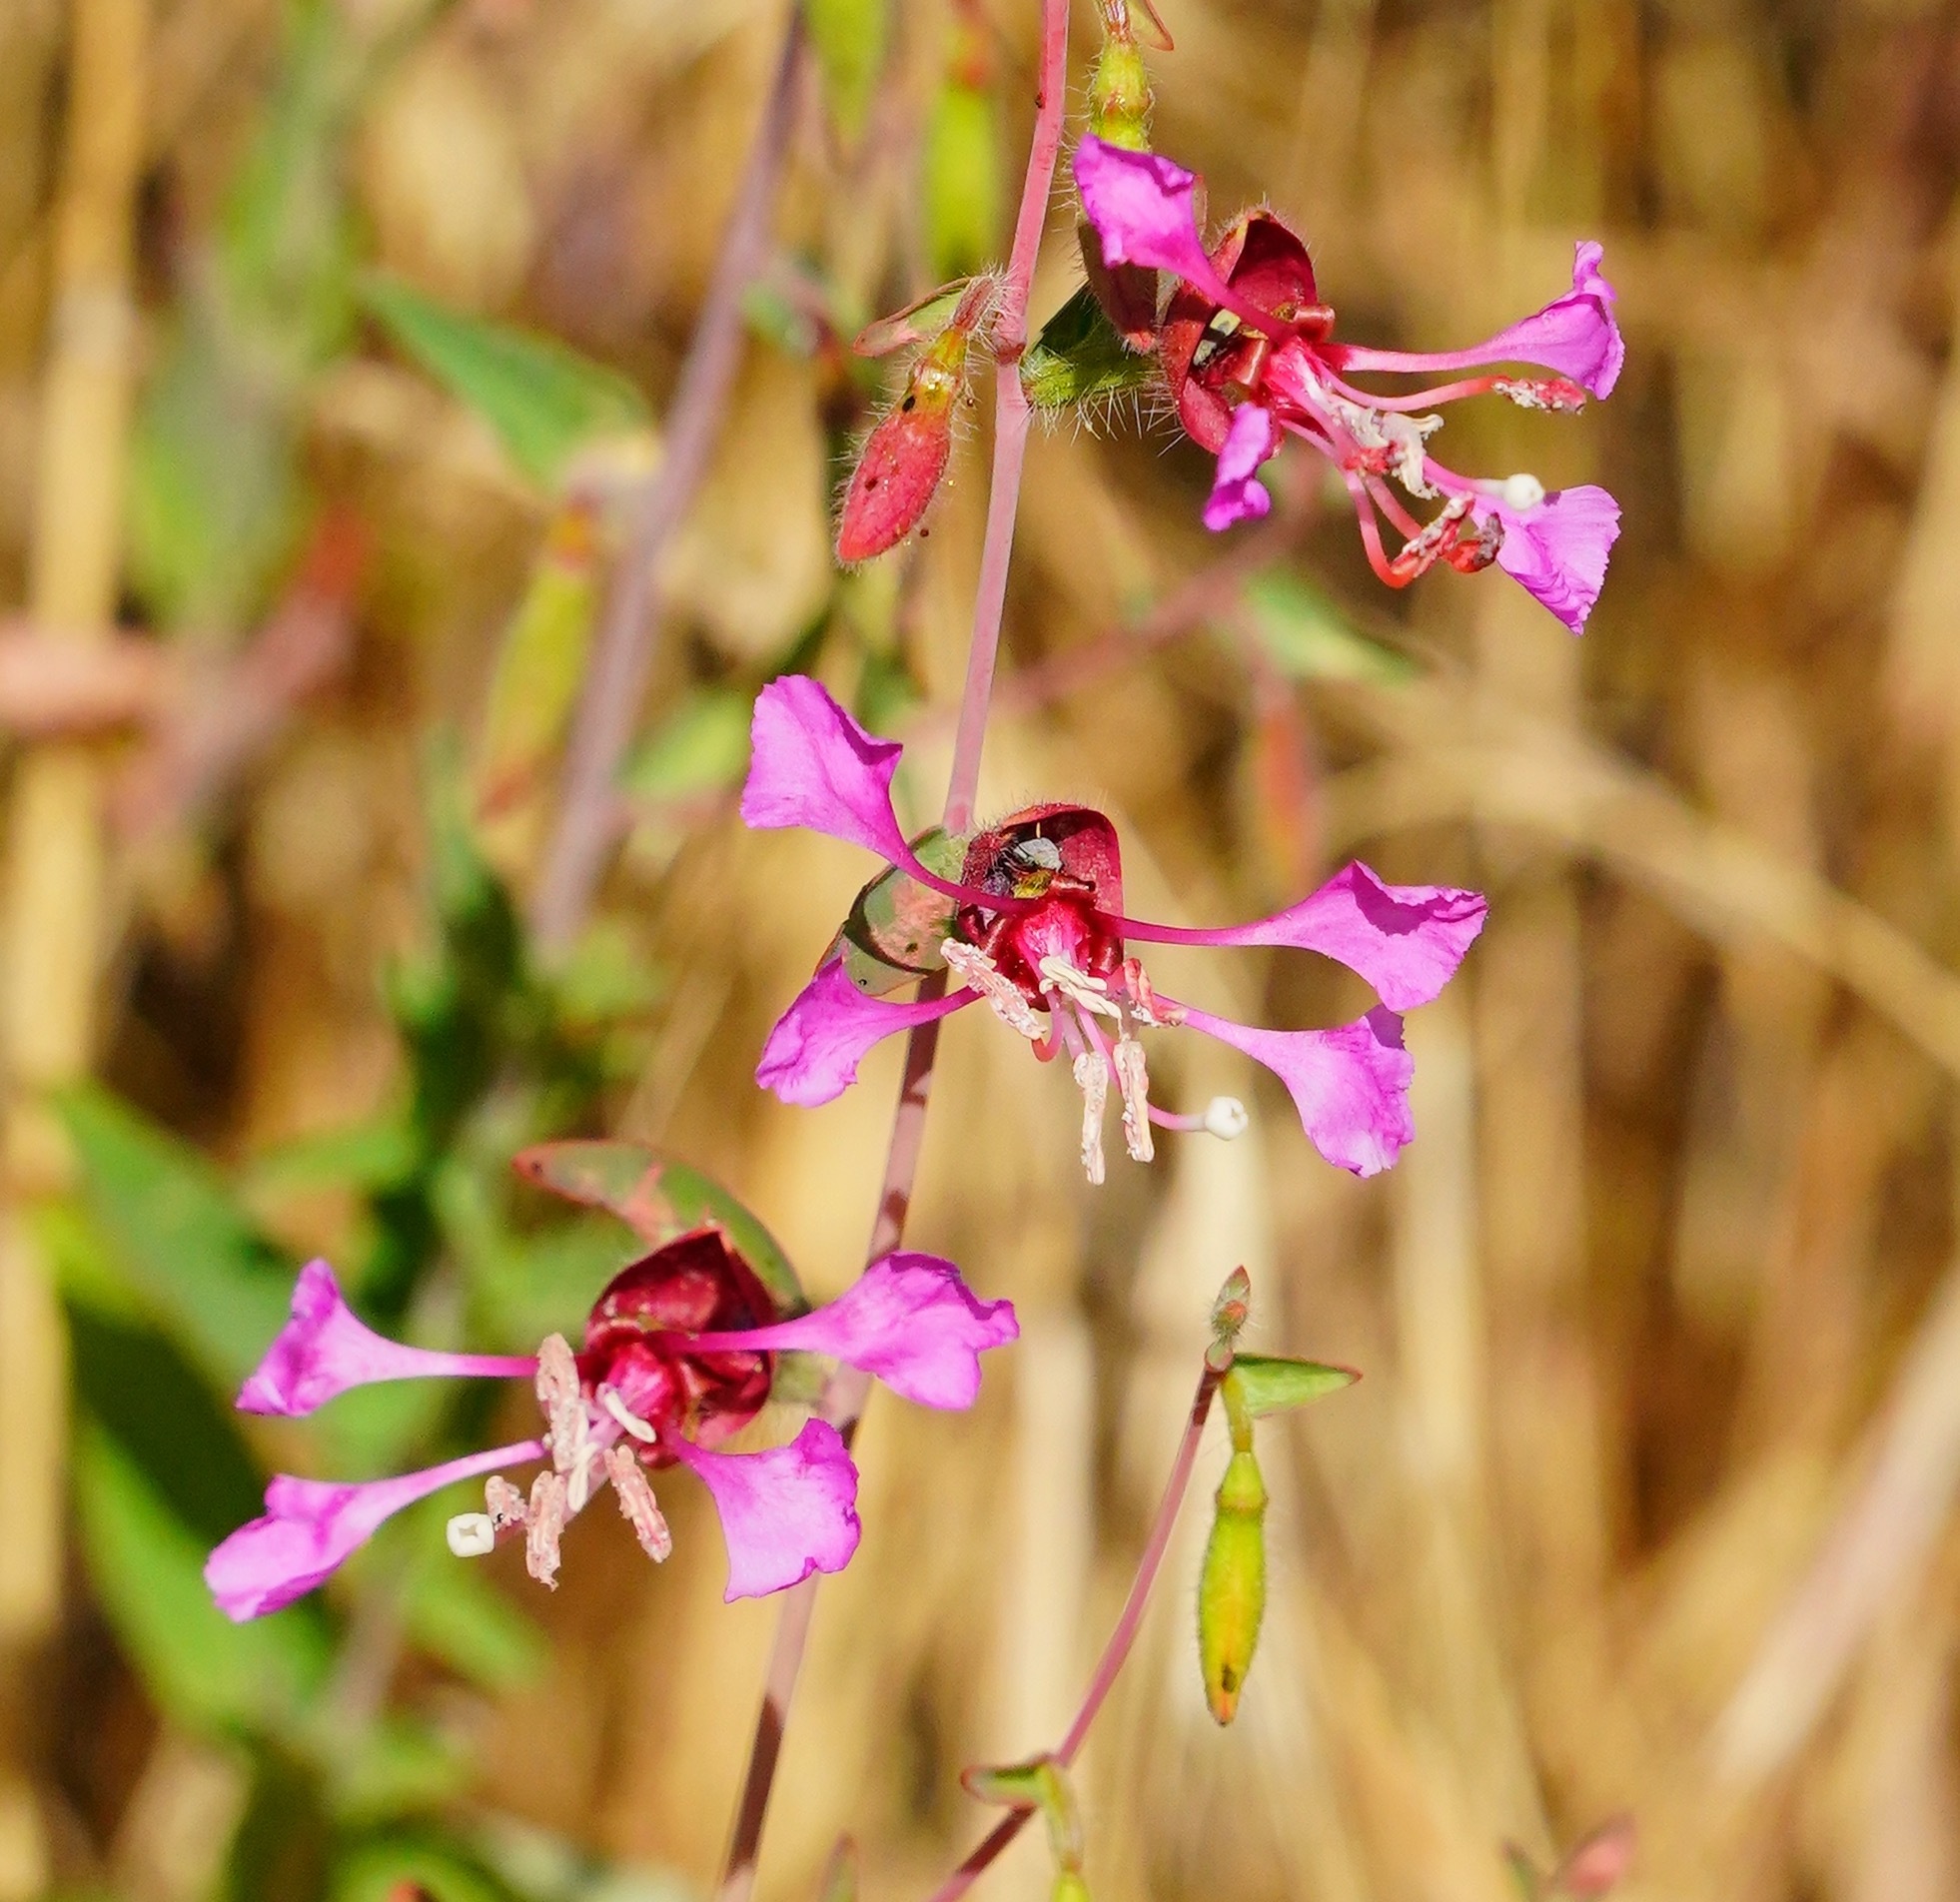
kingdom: Plantae
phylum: Tracheophyta
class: Magnoliopsida
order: Myrtales
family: Onagraceae
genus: Clarkia
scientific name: Clarkia unguiculata
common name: Clarkia
